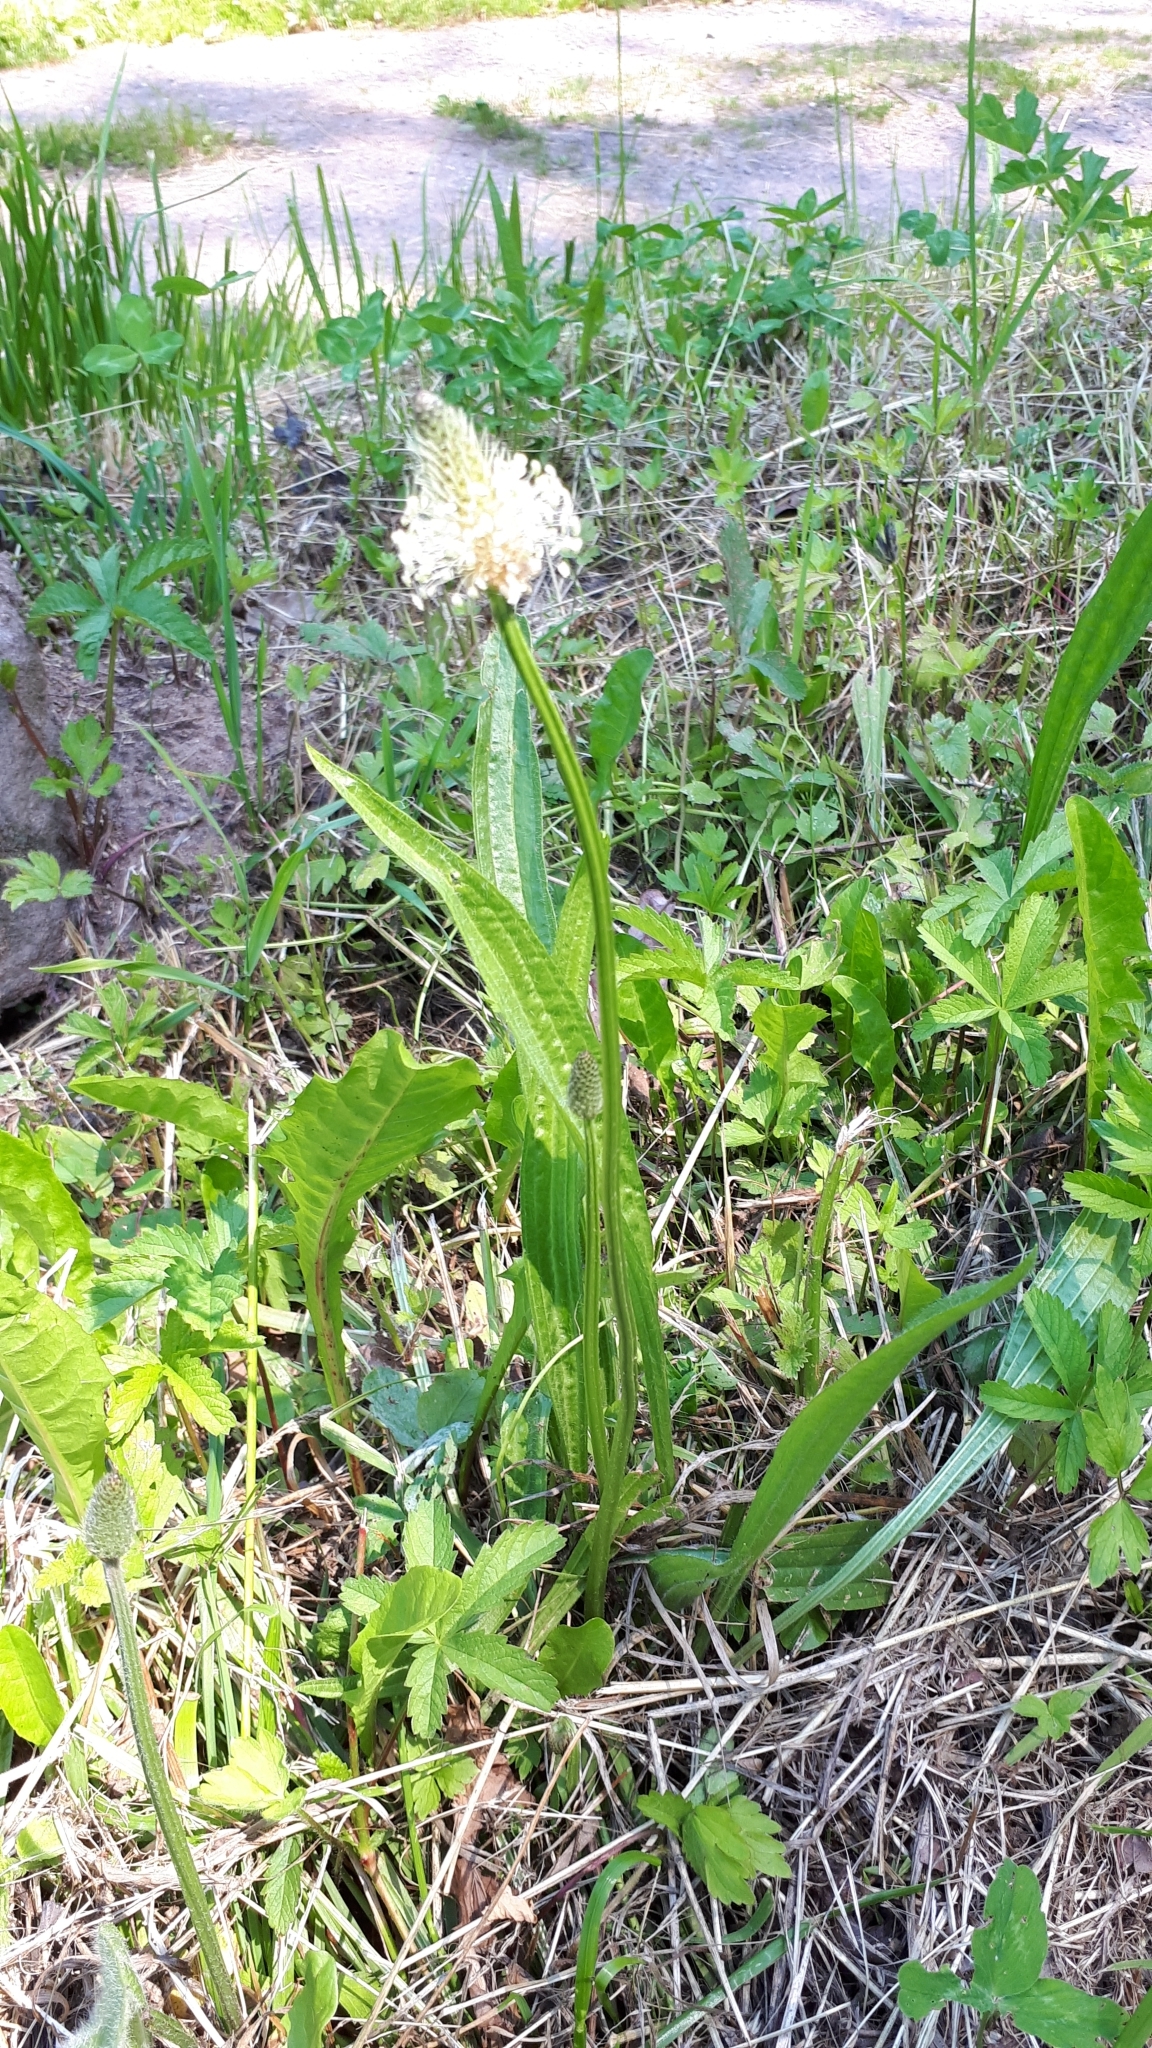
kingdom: Plantae
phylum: Tracheophyta
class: Magnoliopsida
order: Lamiales
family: Plantaginaceae
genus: Plantago
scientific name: Plantago lanceolata
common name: Ribwort plantain
